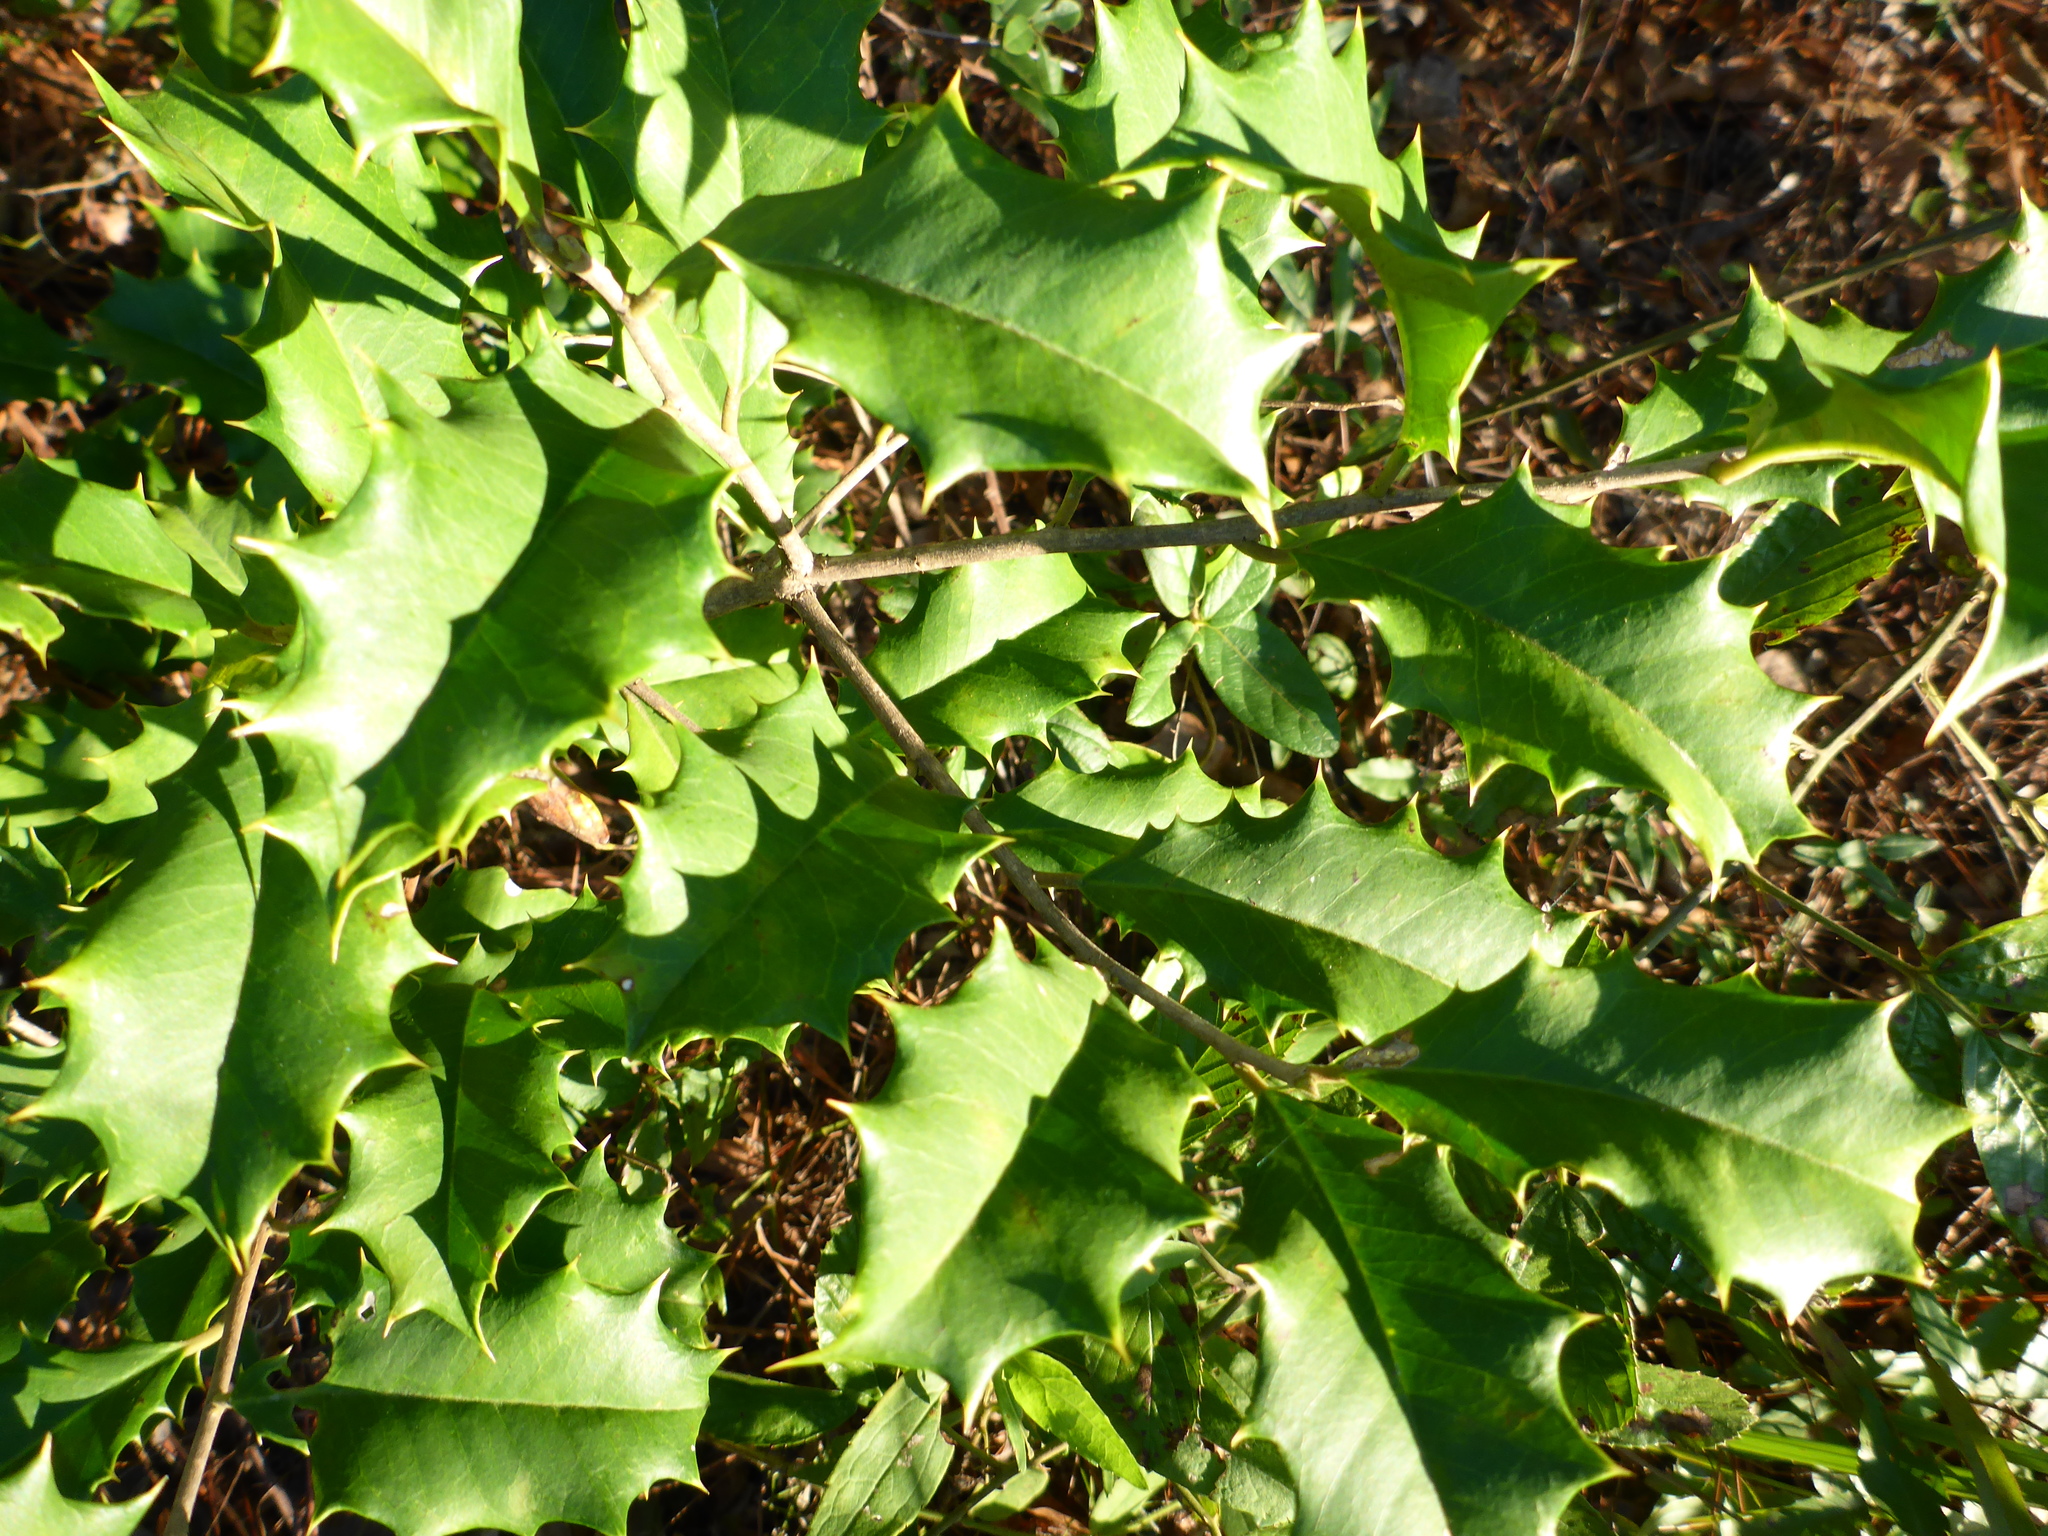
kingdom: Plantae
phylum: Tracheophyta
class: Magnoliopsida
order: Aquifoliales
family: Aquifoliaceae
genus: Ilex
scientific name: Ilex opaca
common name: American holly
